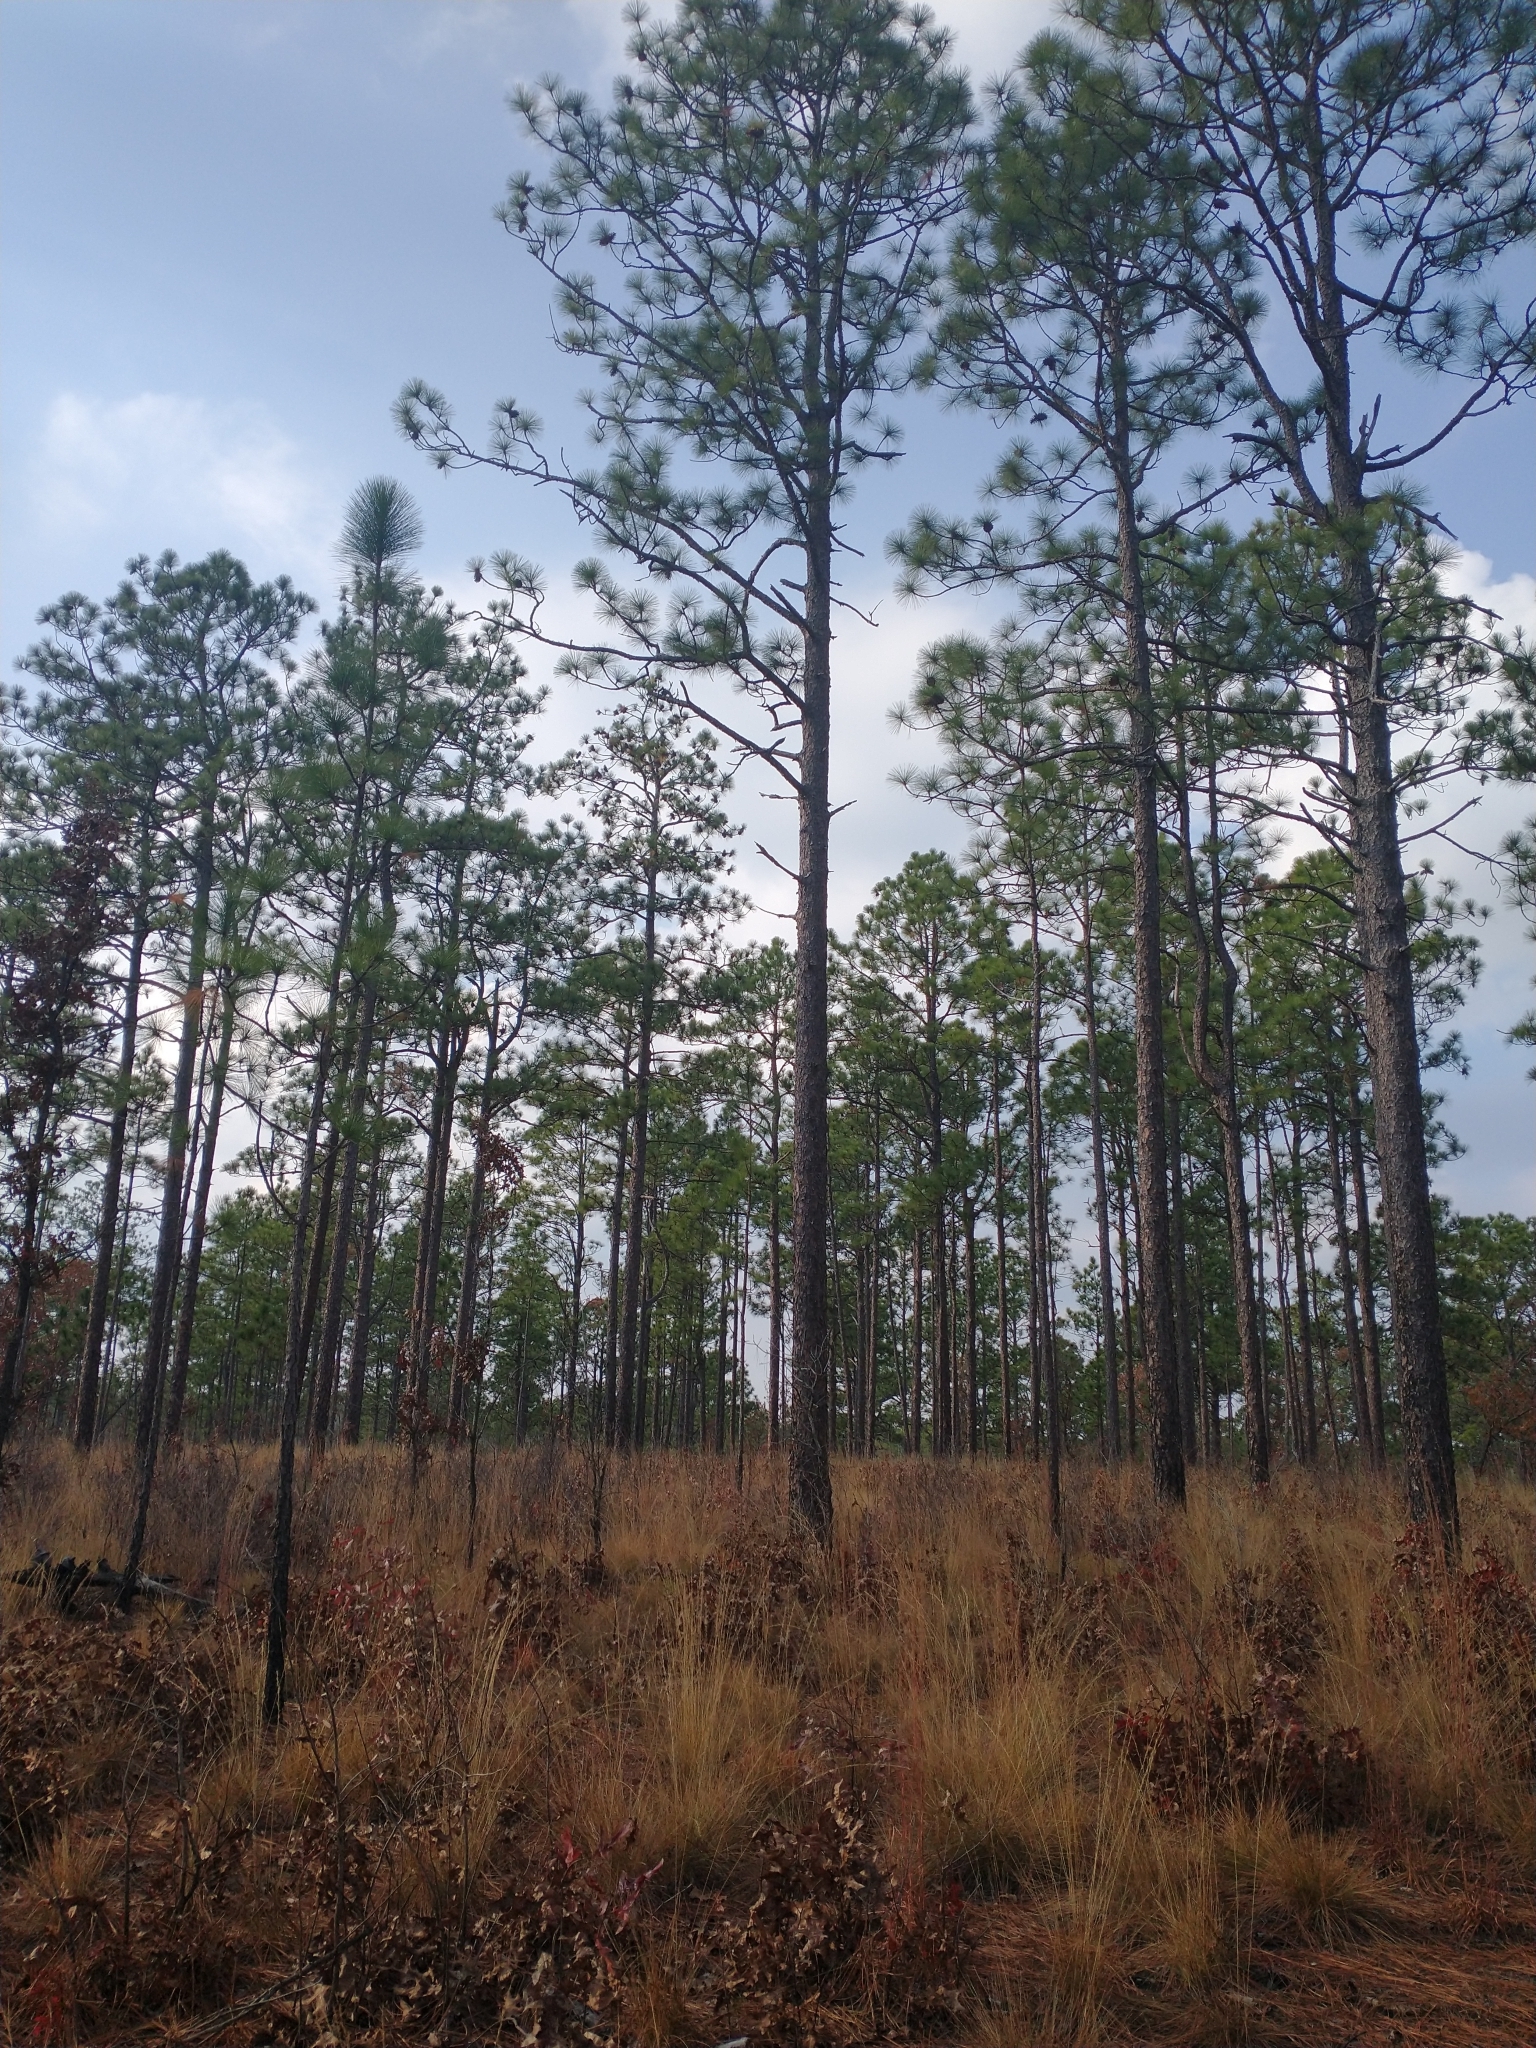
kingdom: Plantae
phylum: Tracheophyta
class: Pinopsida
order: Pinales
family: Pinaceae
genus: Pinus
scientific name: Pinus palustris
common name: Longleaf pine
